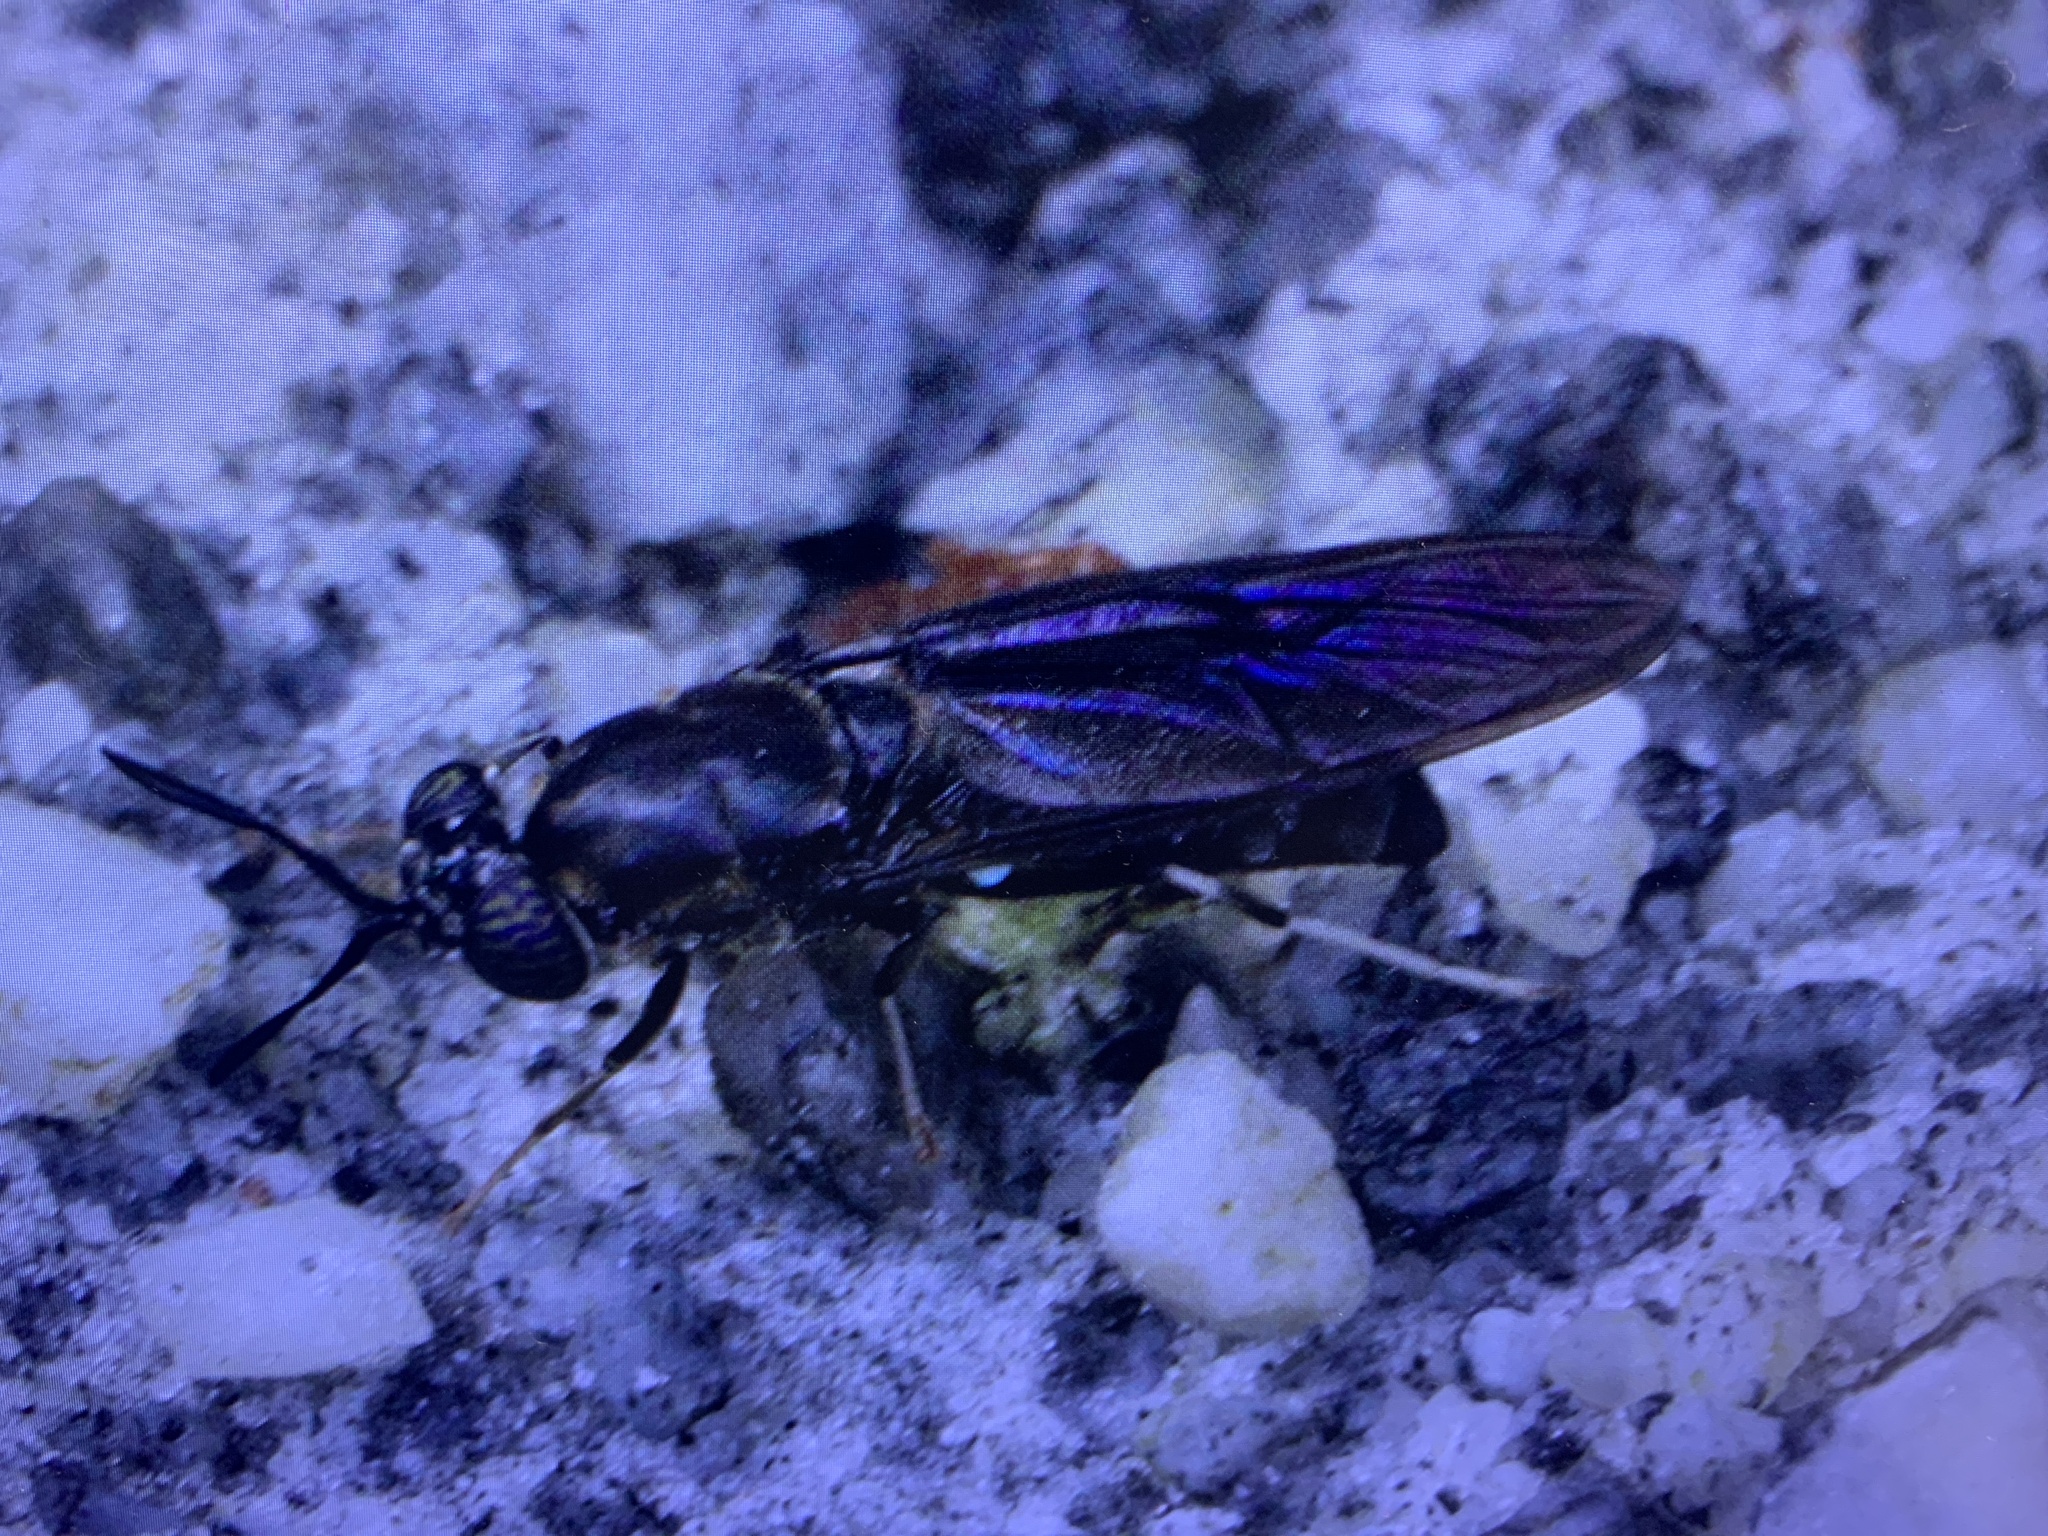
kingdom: Animalia
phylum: Arthropoda
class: Insecta
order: Diptera
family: Stratiomyidae
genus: Hermetia
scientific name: Hermetia illucens
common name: Black soldier fly
